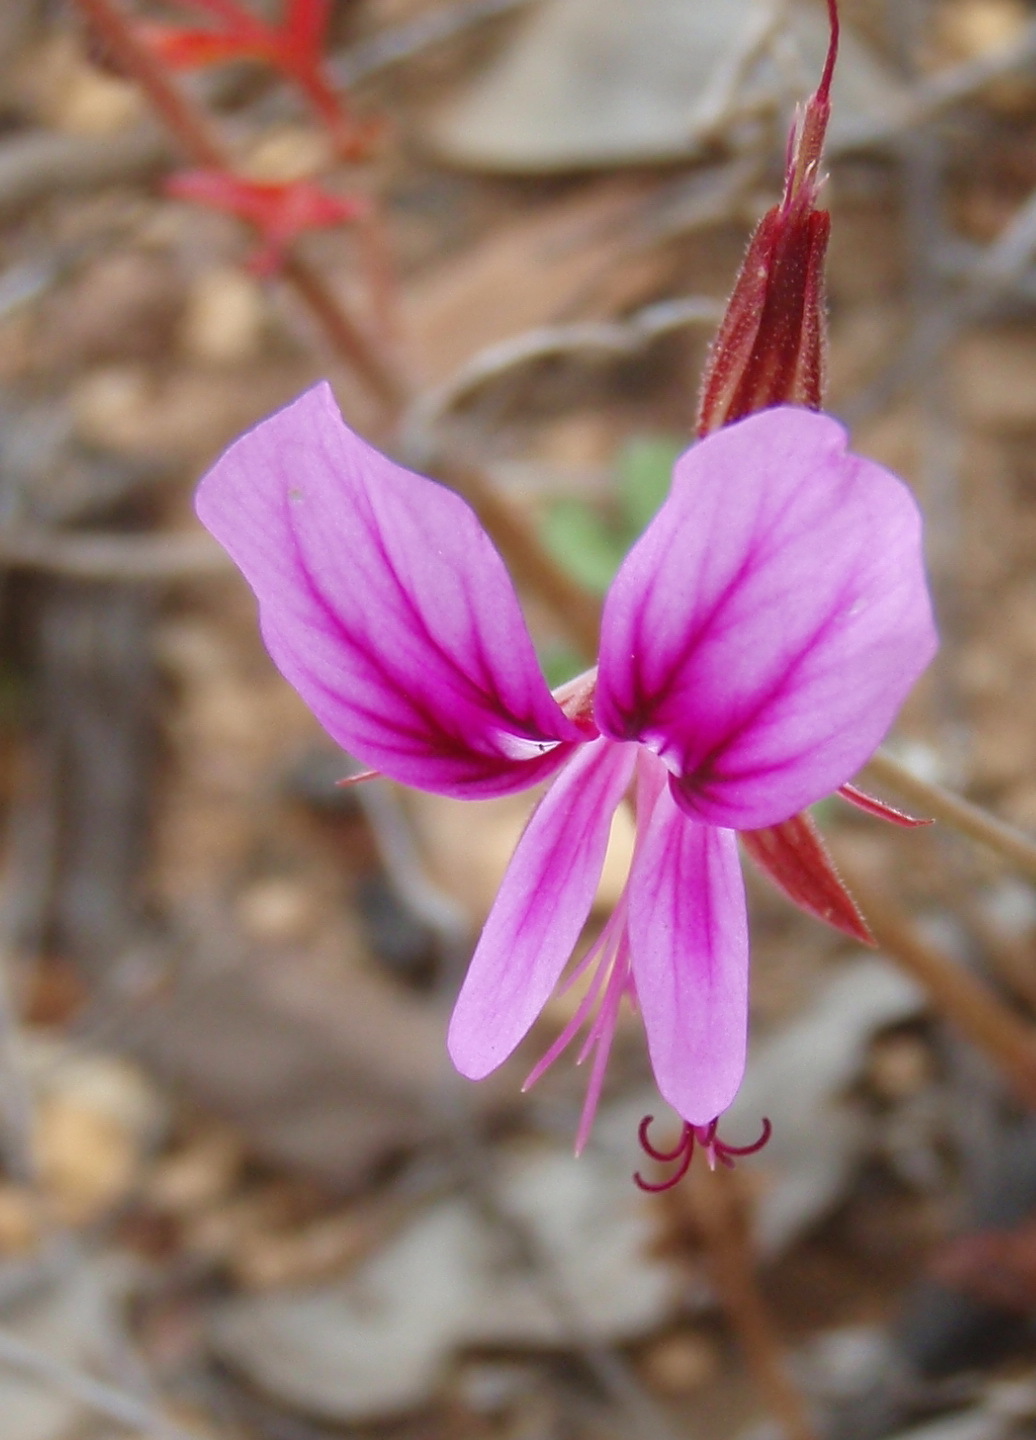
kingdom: Plantae
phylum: Tracheophyta
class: Magnoliopsida
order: Geraniales
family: Geraniaceae
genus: Pelargonium
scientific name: Pelargonium multicaule
